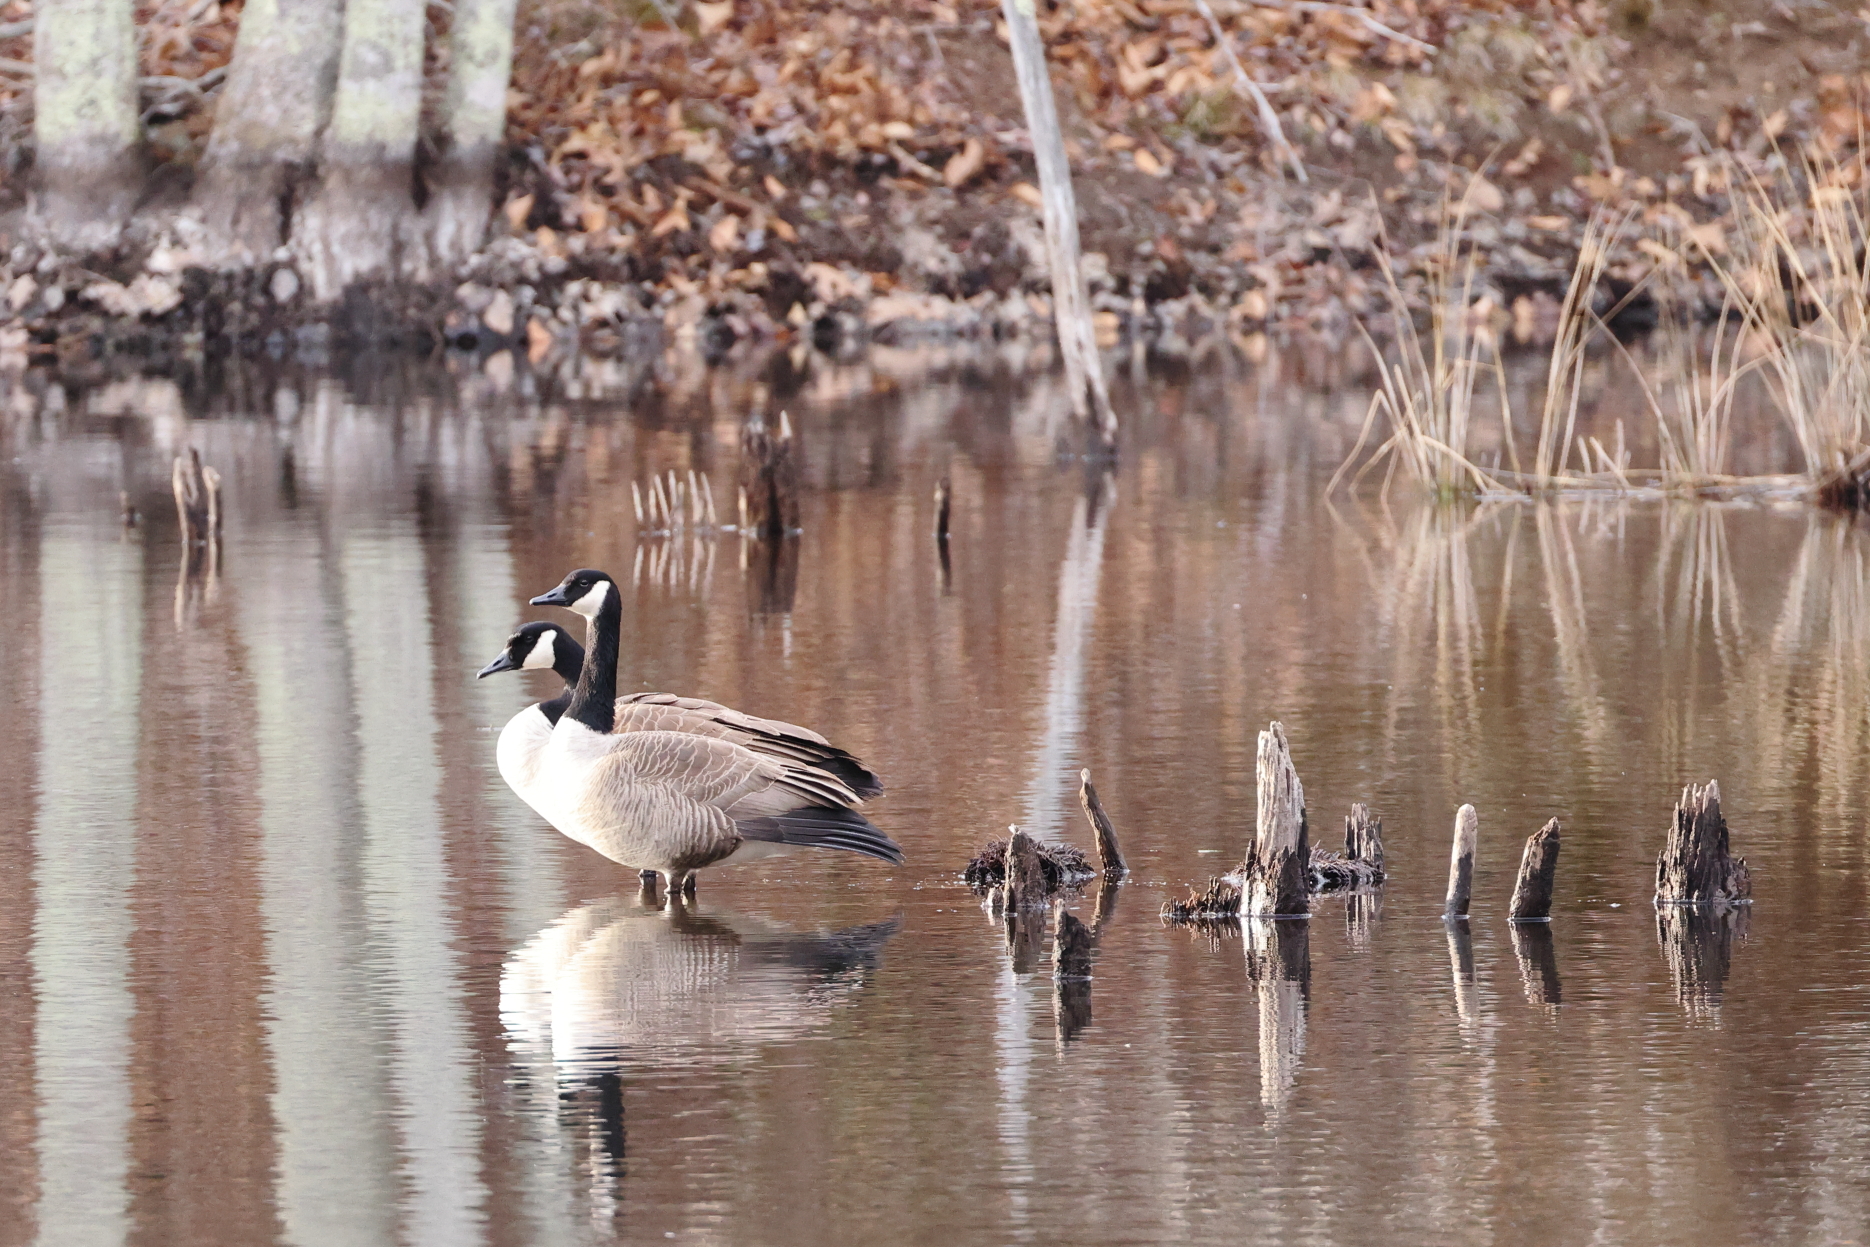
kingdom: Animalia
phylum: Chordata
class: Aves
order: Anseriformes
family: Anatidae
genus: Branta
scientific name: Branta canadensis
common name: Canada goose
